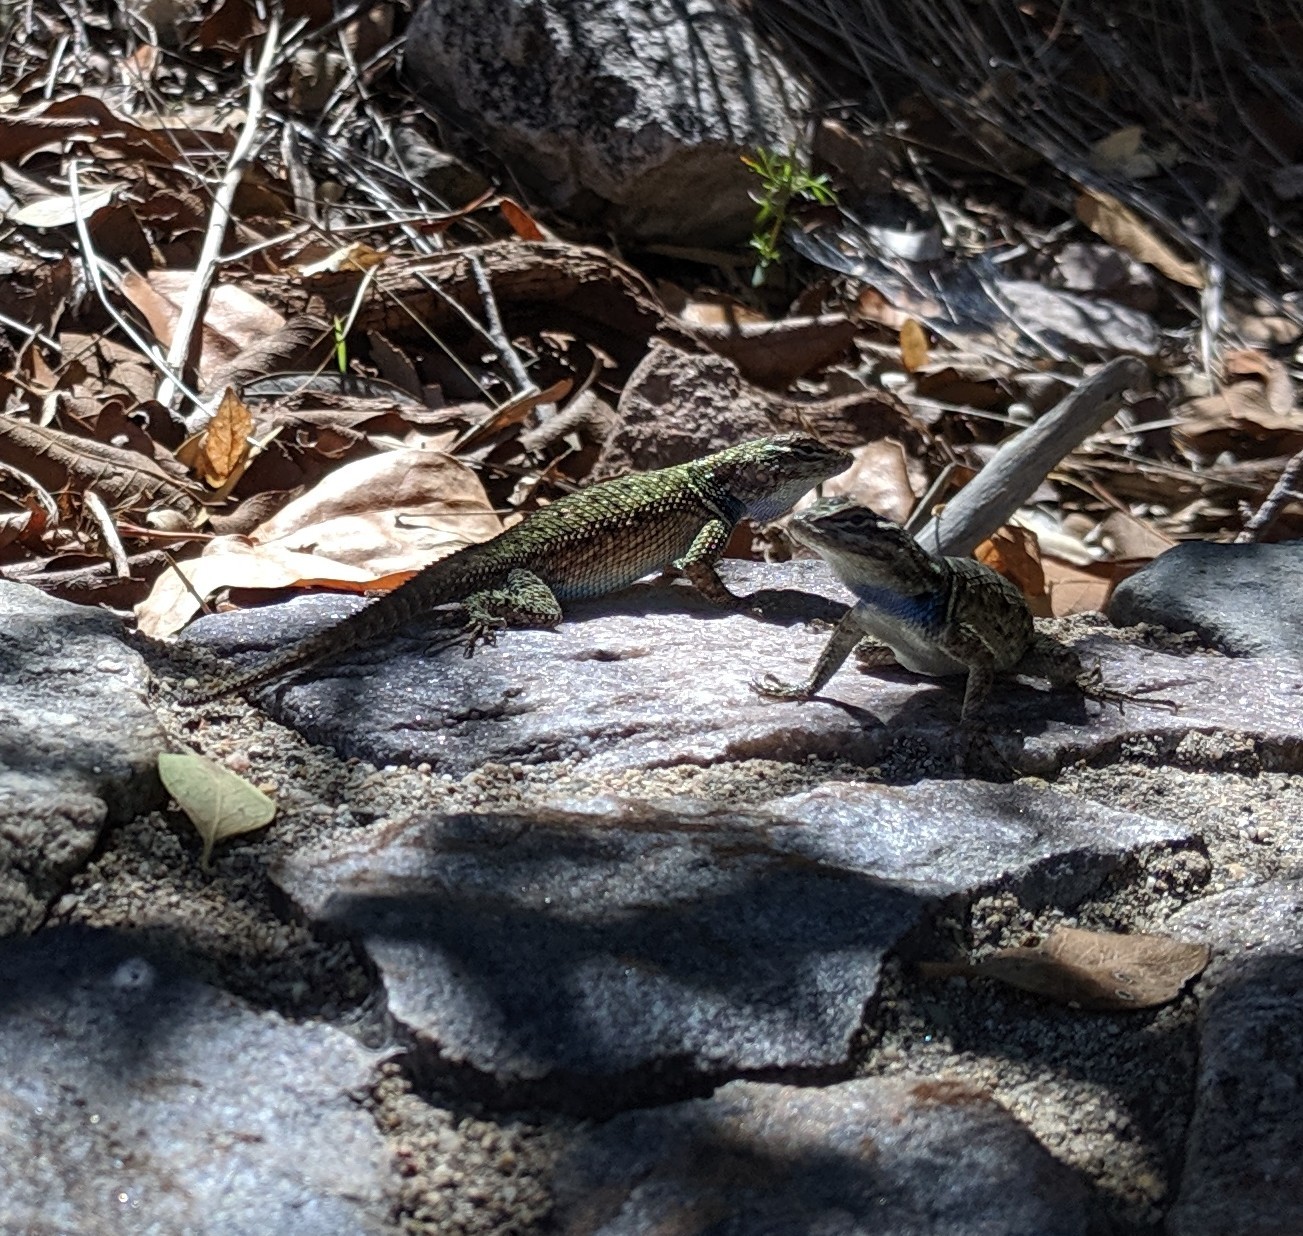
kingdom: Animalia
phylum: Chordata
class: Squamata
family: Phrynosomatidae
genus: Sceloporus
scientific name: Sceloporus jarrovii
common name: Yarrow's spiny lizard
